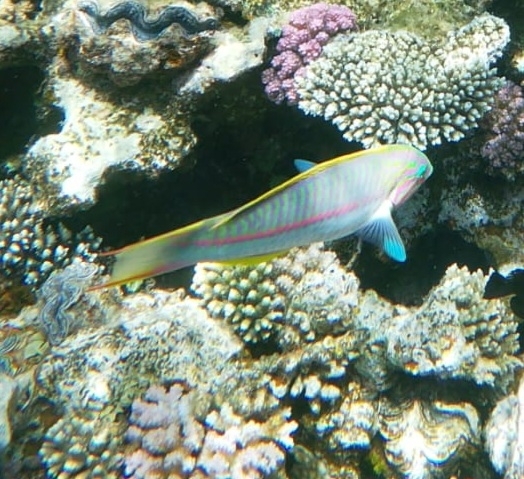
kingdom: Animalia
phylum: Chordata
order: Perciformes
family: Labridae
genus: Thalassoma
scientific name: Thalassoma rueppellii
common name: Klunzinger's wrasse
